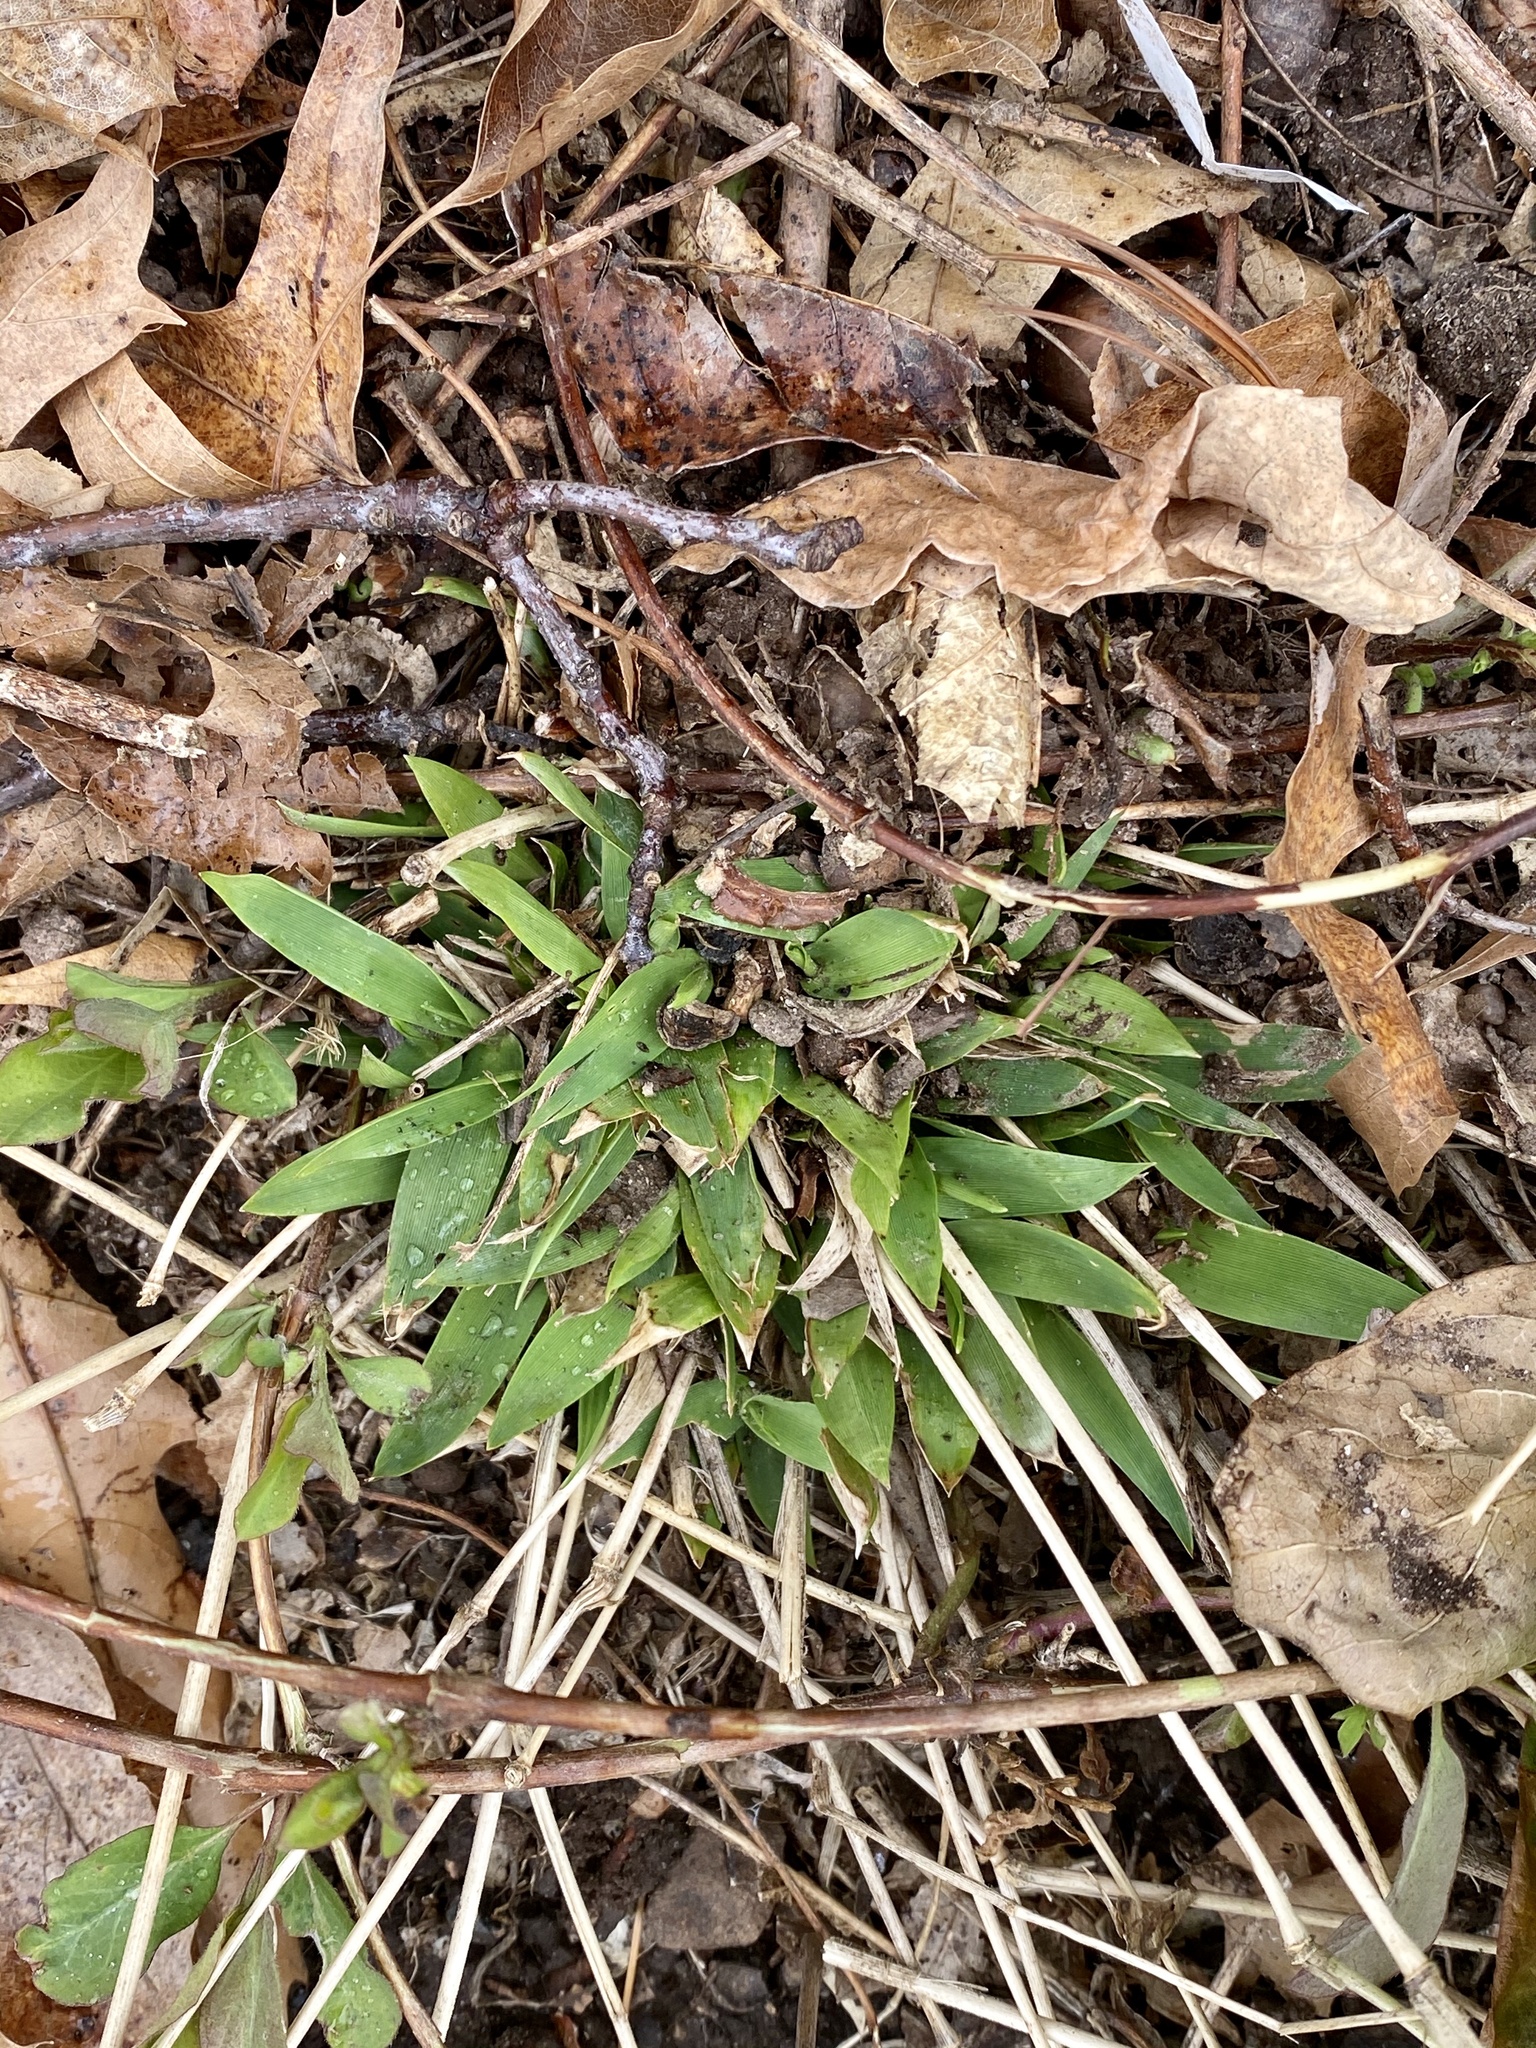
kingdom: Plantae
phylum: Tracheophyta
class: Liliopsida
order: Poales
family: Poaceae
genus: Dichanthelium
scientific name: Dichanthelium clandestinum
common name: Deer-tongue grass
